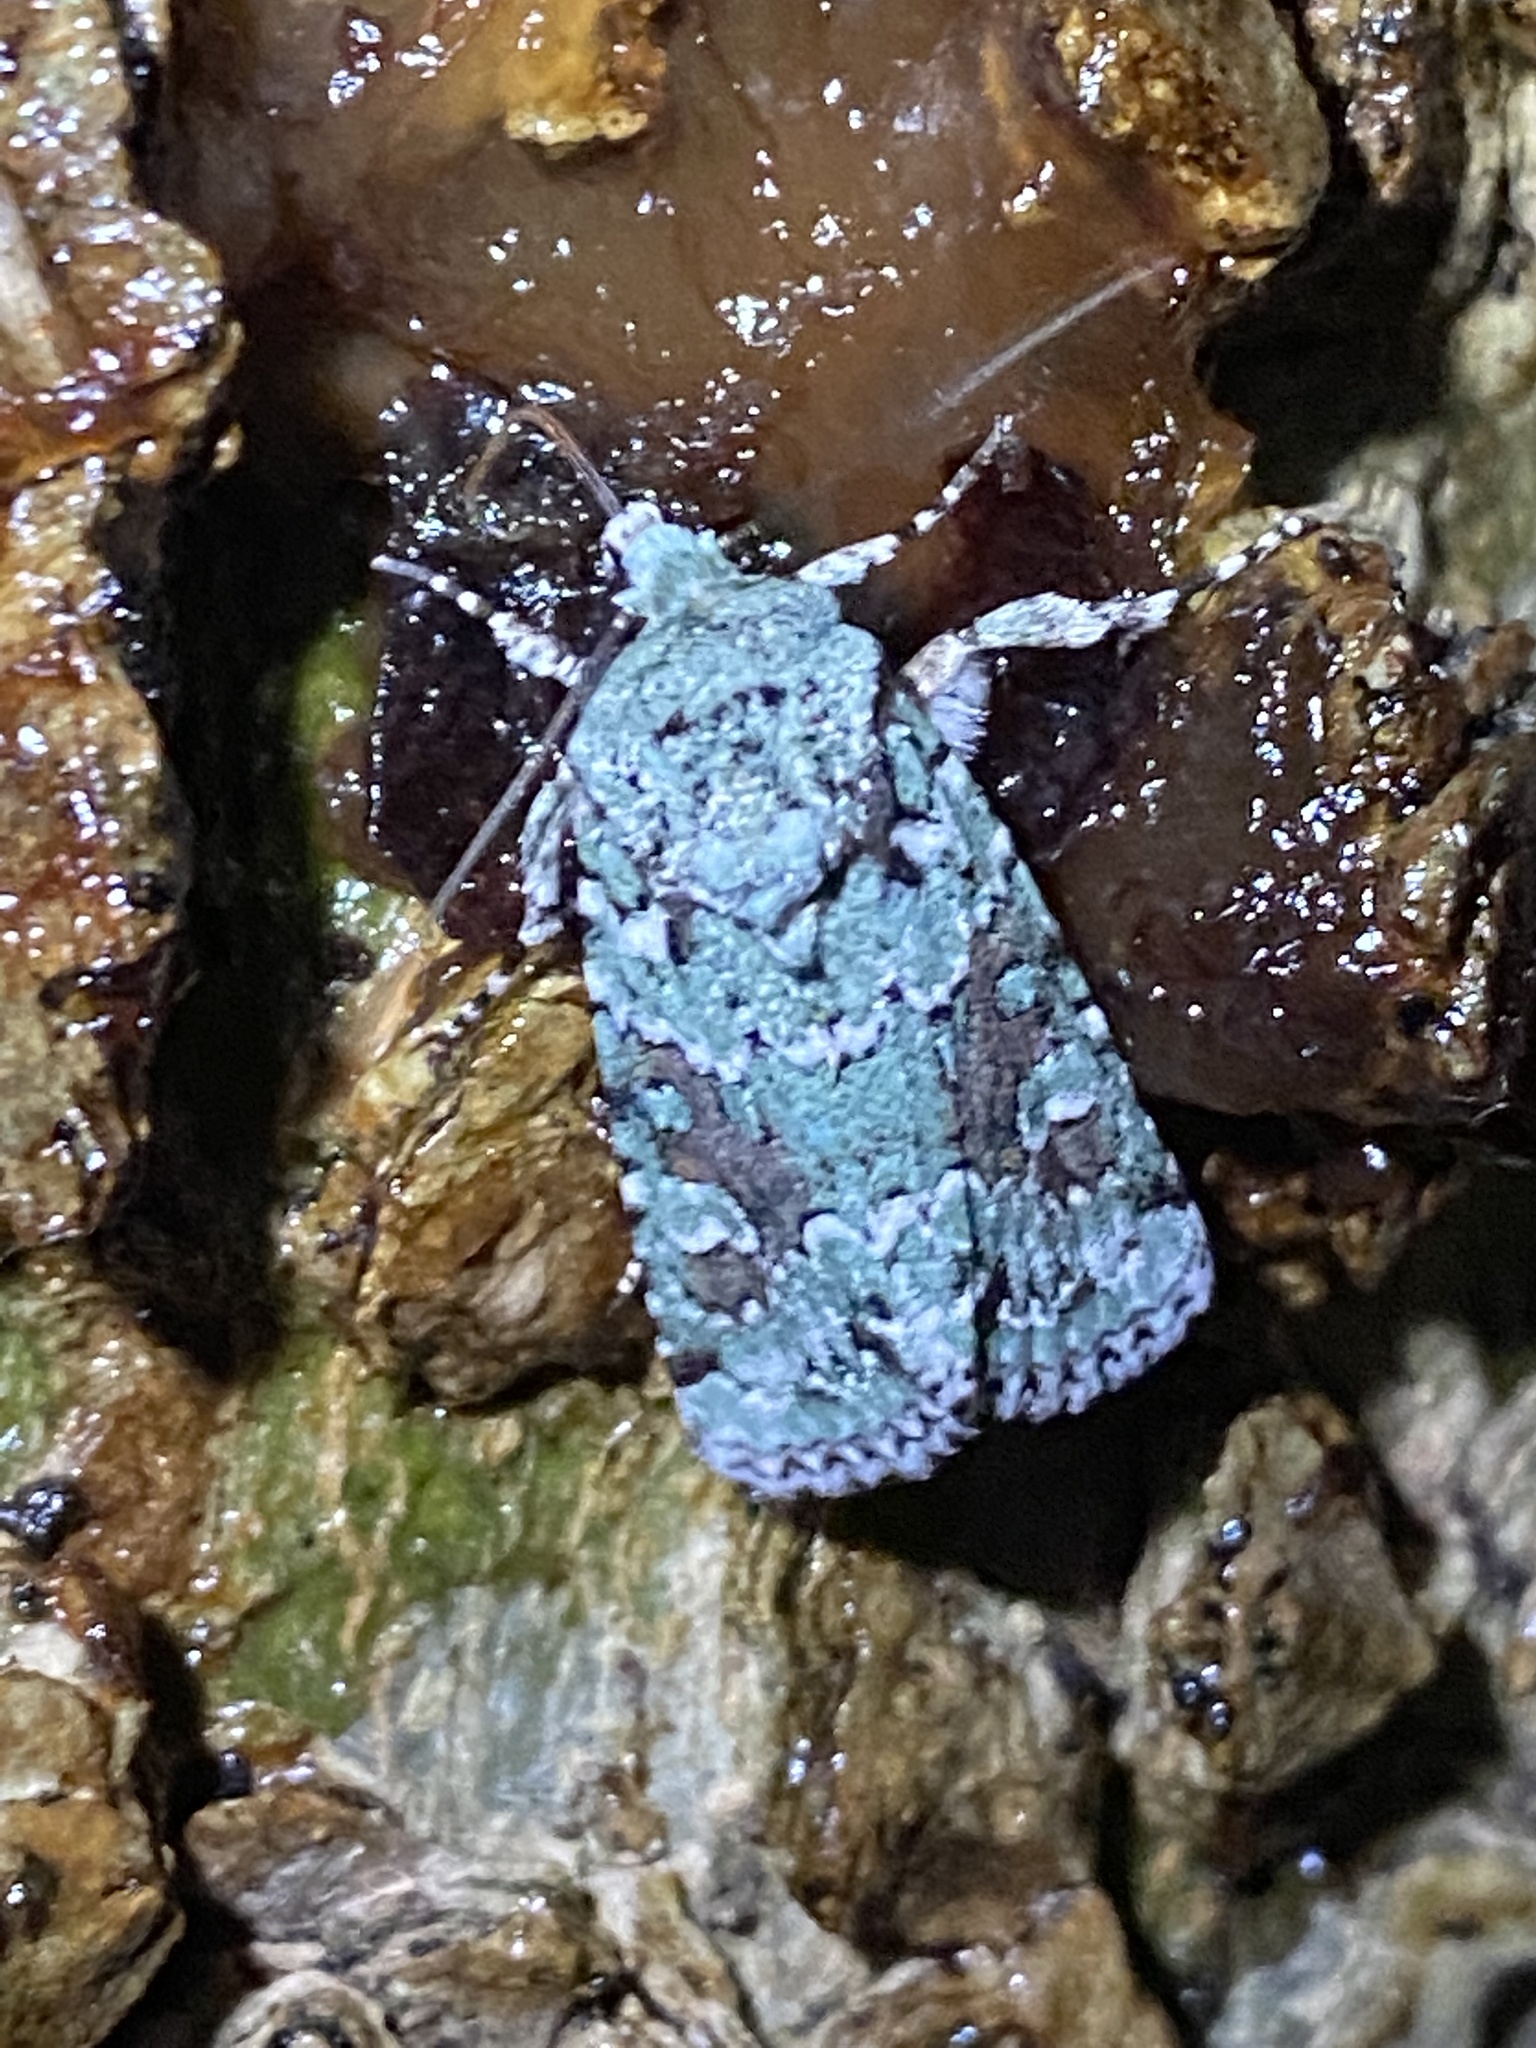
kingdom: Animalia
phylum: Arthropoda
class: Insecta
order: Lepidoptera
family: Noctuidae
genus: Lacinipolia
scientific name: Lacinipolia laudabilis
